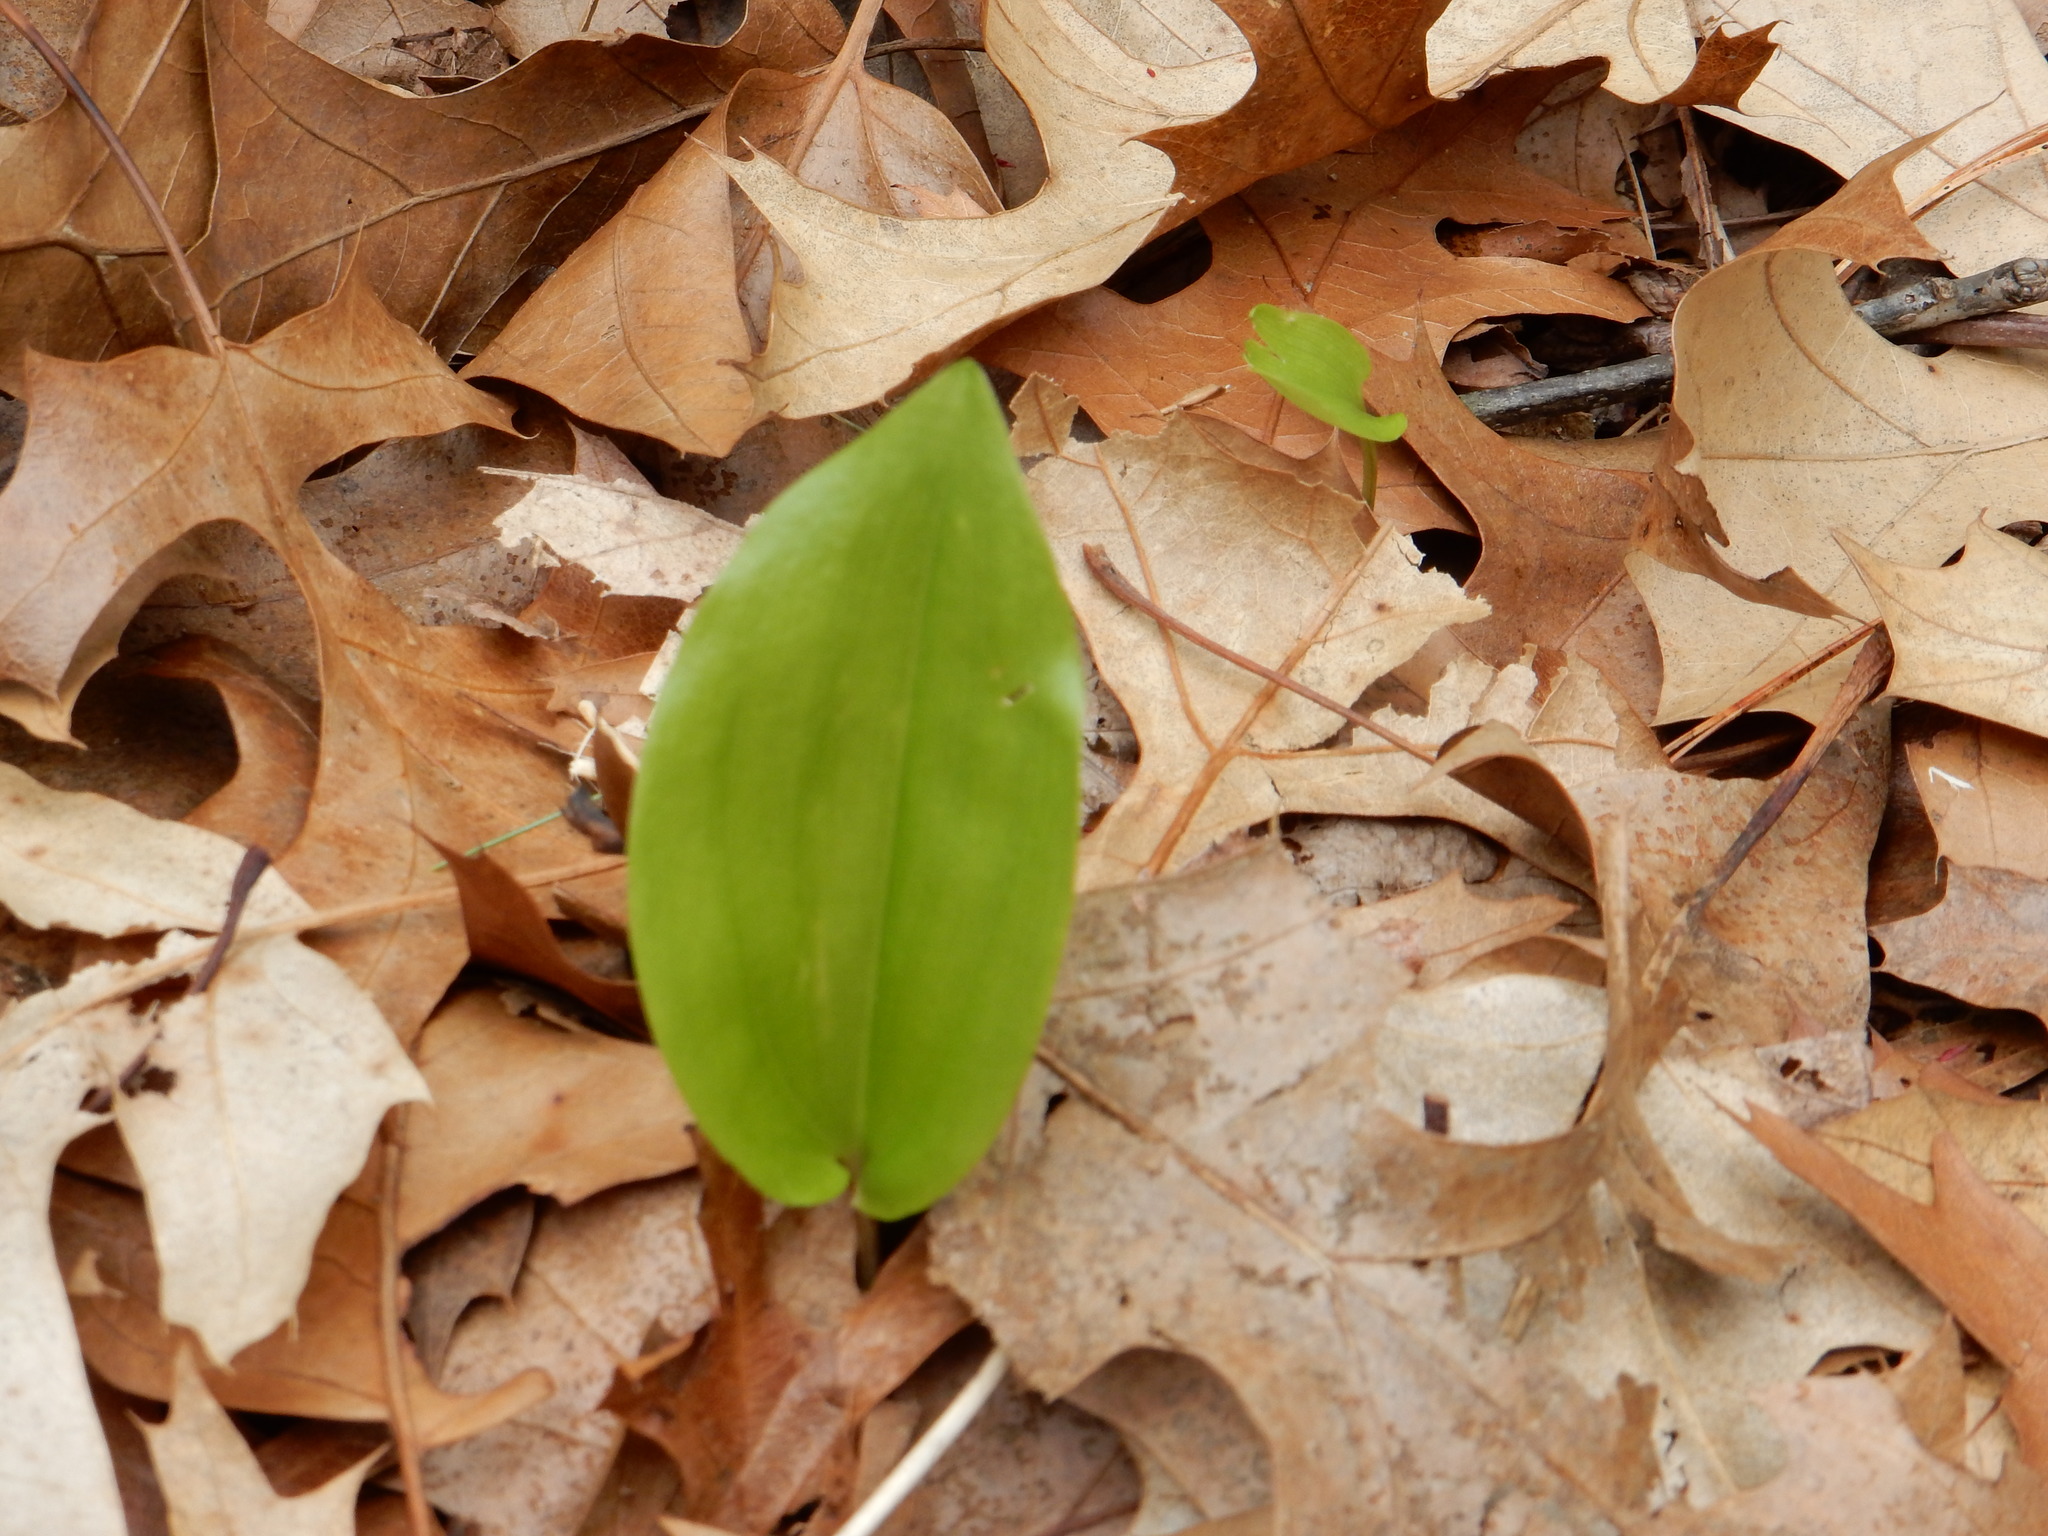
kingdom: Plantae
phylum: Tracheophyta
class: Liliopsida
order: Asparagales
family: Asparagaceae
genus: Maianthemum
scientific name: Maianthemum canadense
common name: False lily-of-the-valley
